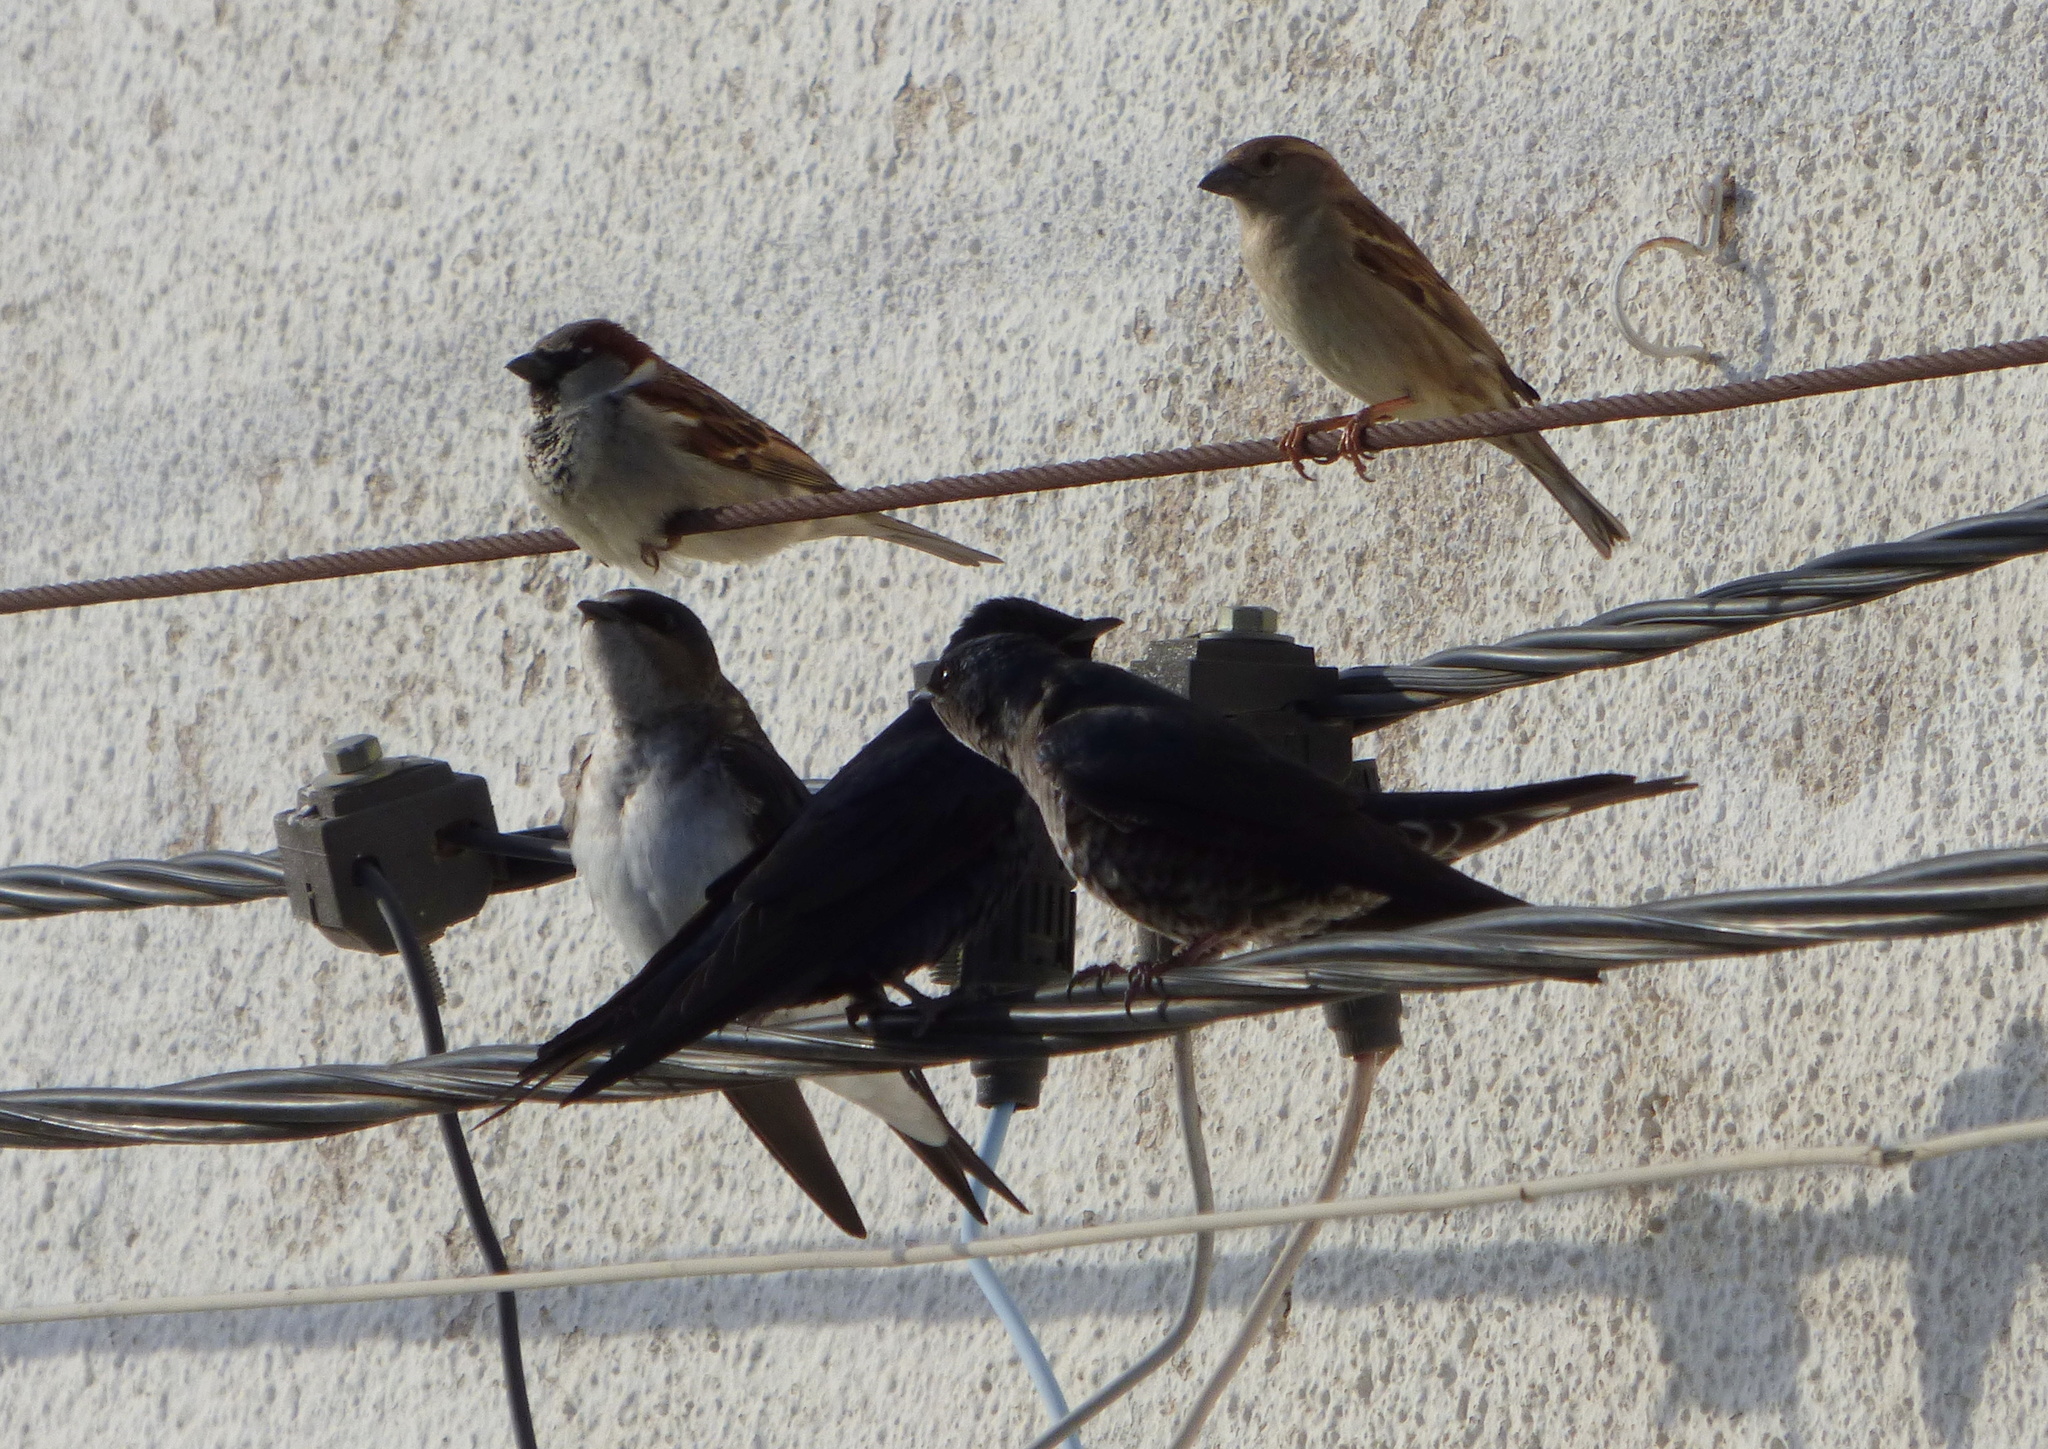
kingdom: Animalia
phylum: Chordata
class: Aves
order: Passeriformes
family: Passeridae
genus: Passer
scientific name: Passer domesticus
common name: House sparrow
